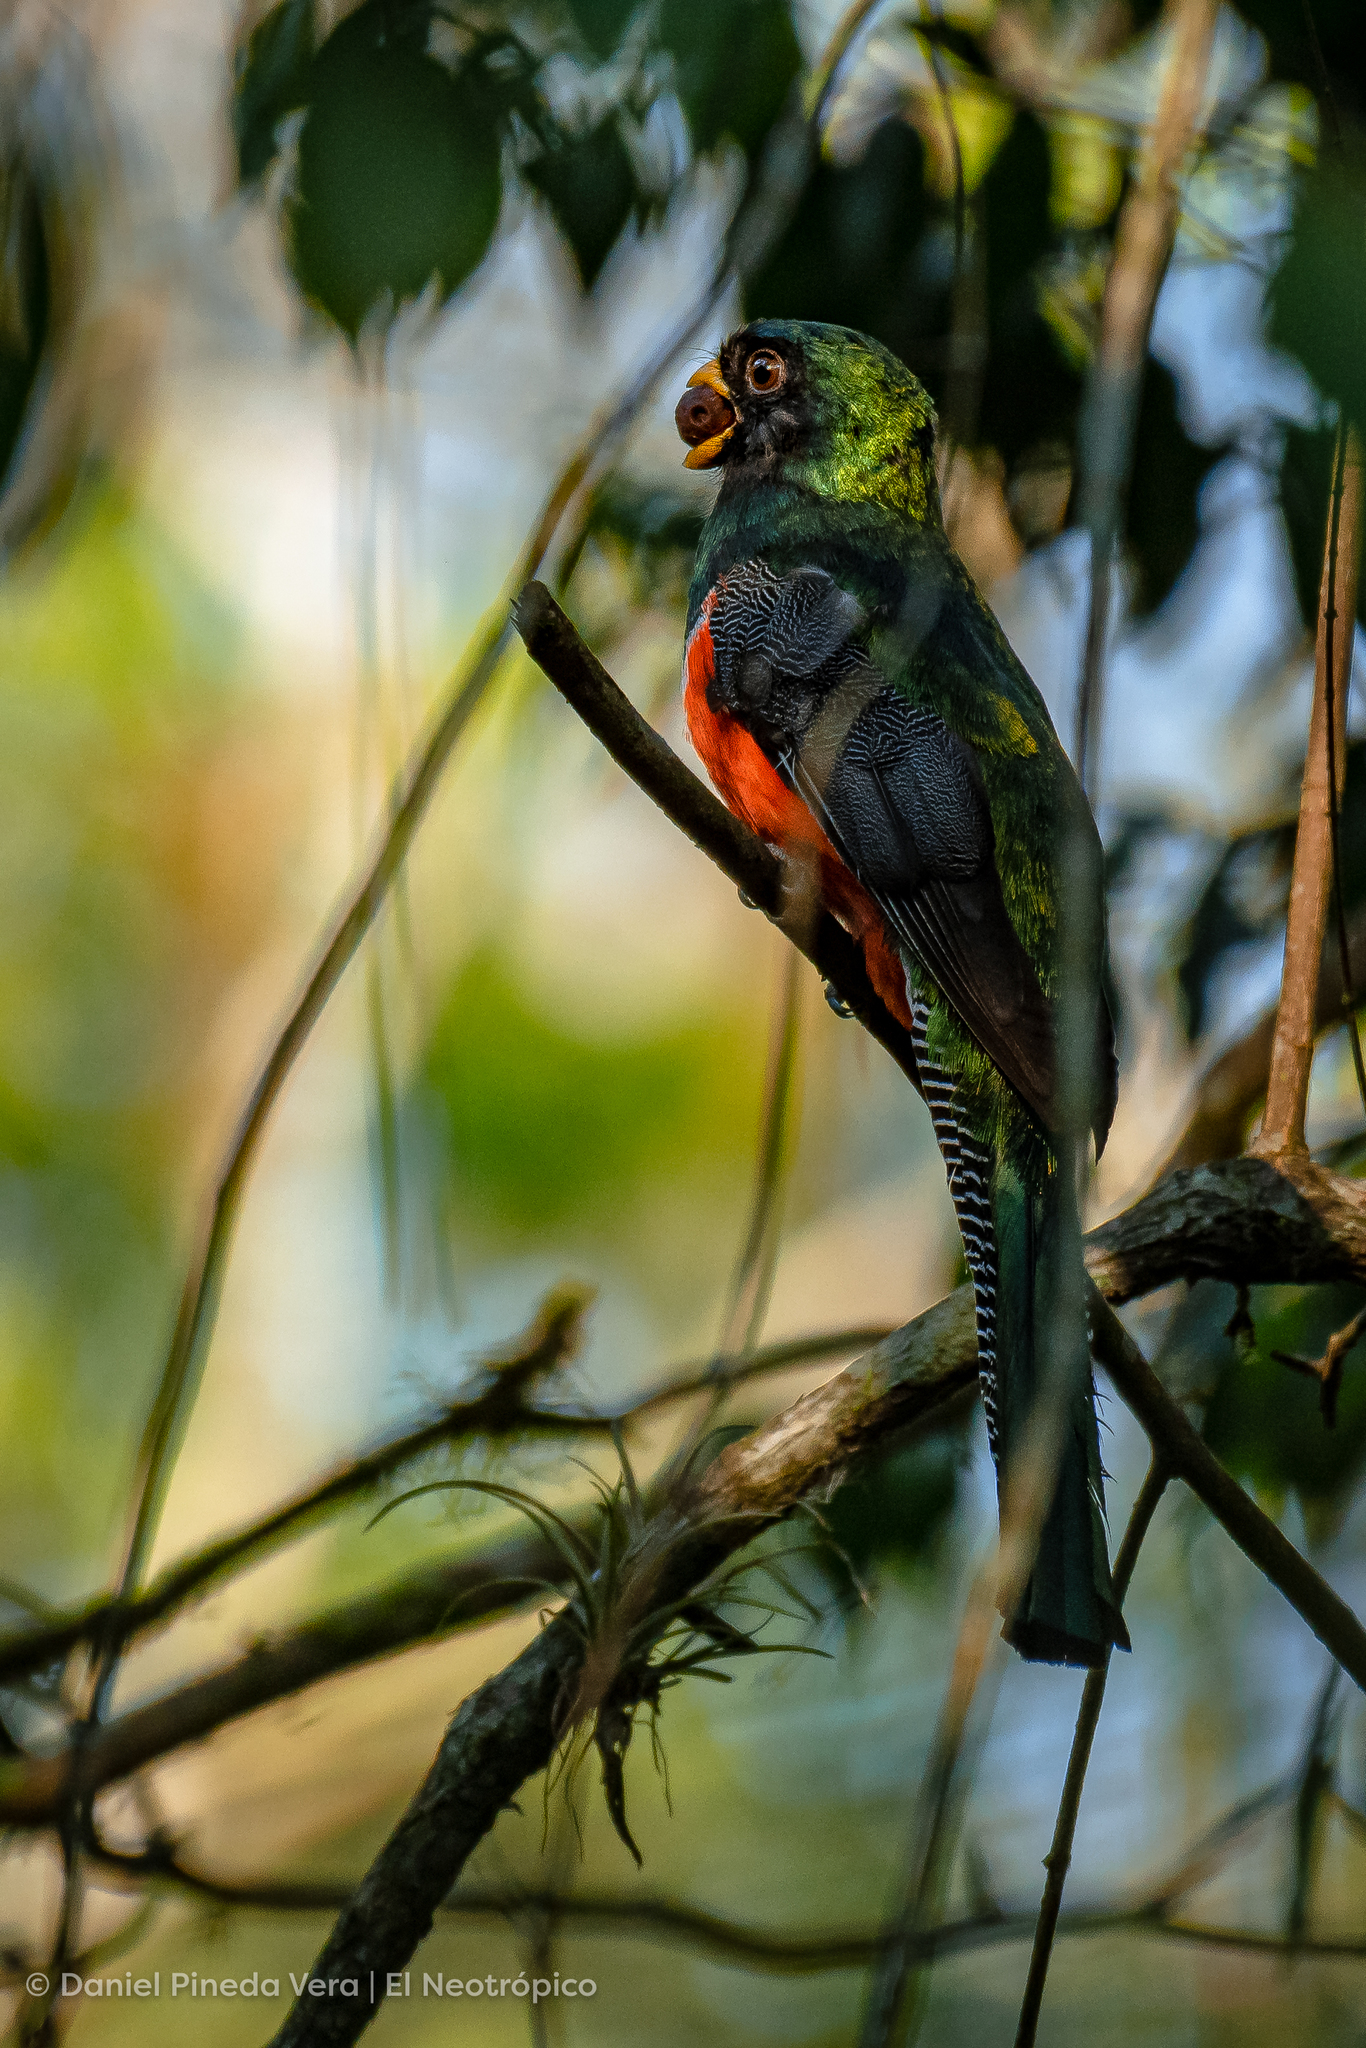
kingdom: Animalia
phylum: Chordata
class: Aves
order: Trogoniformes
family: Trogonidae
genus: Trogon
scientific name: Trogon collaris
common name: Collared trogon
